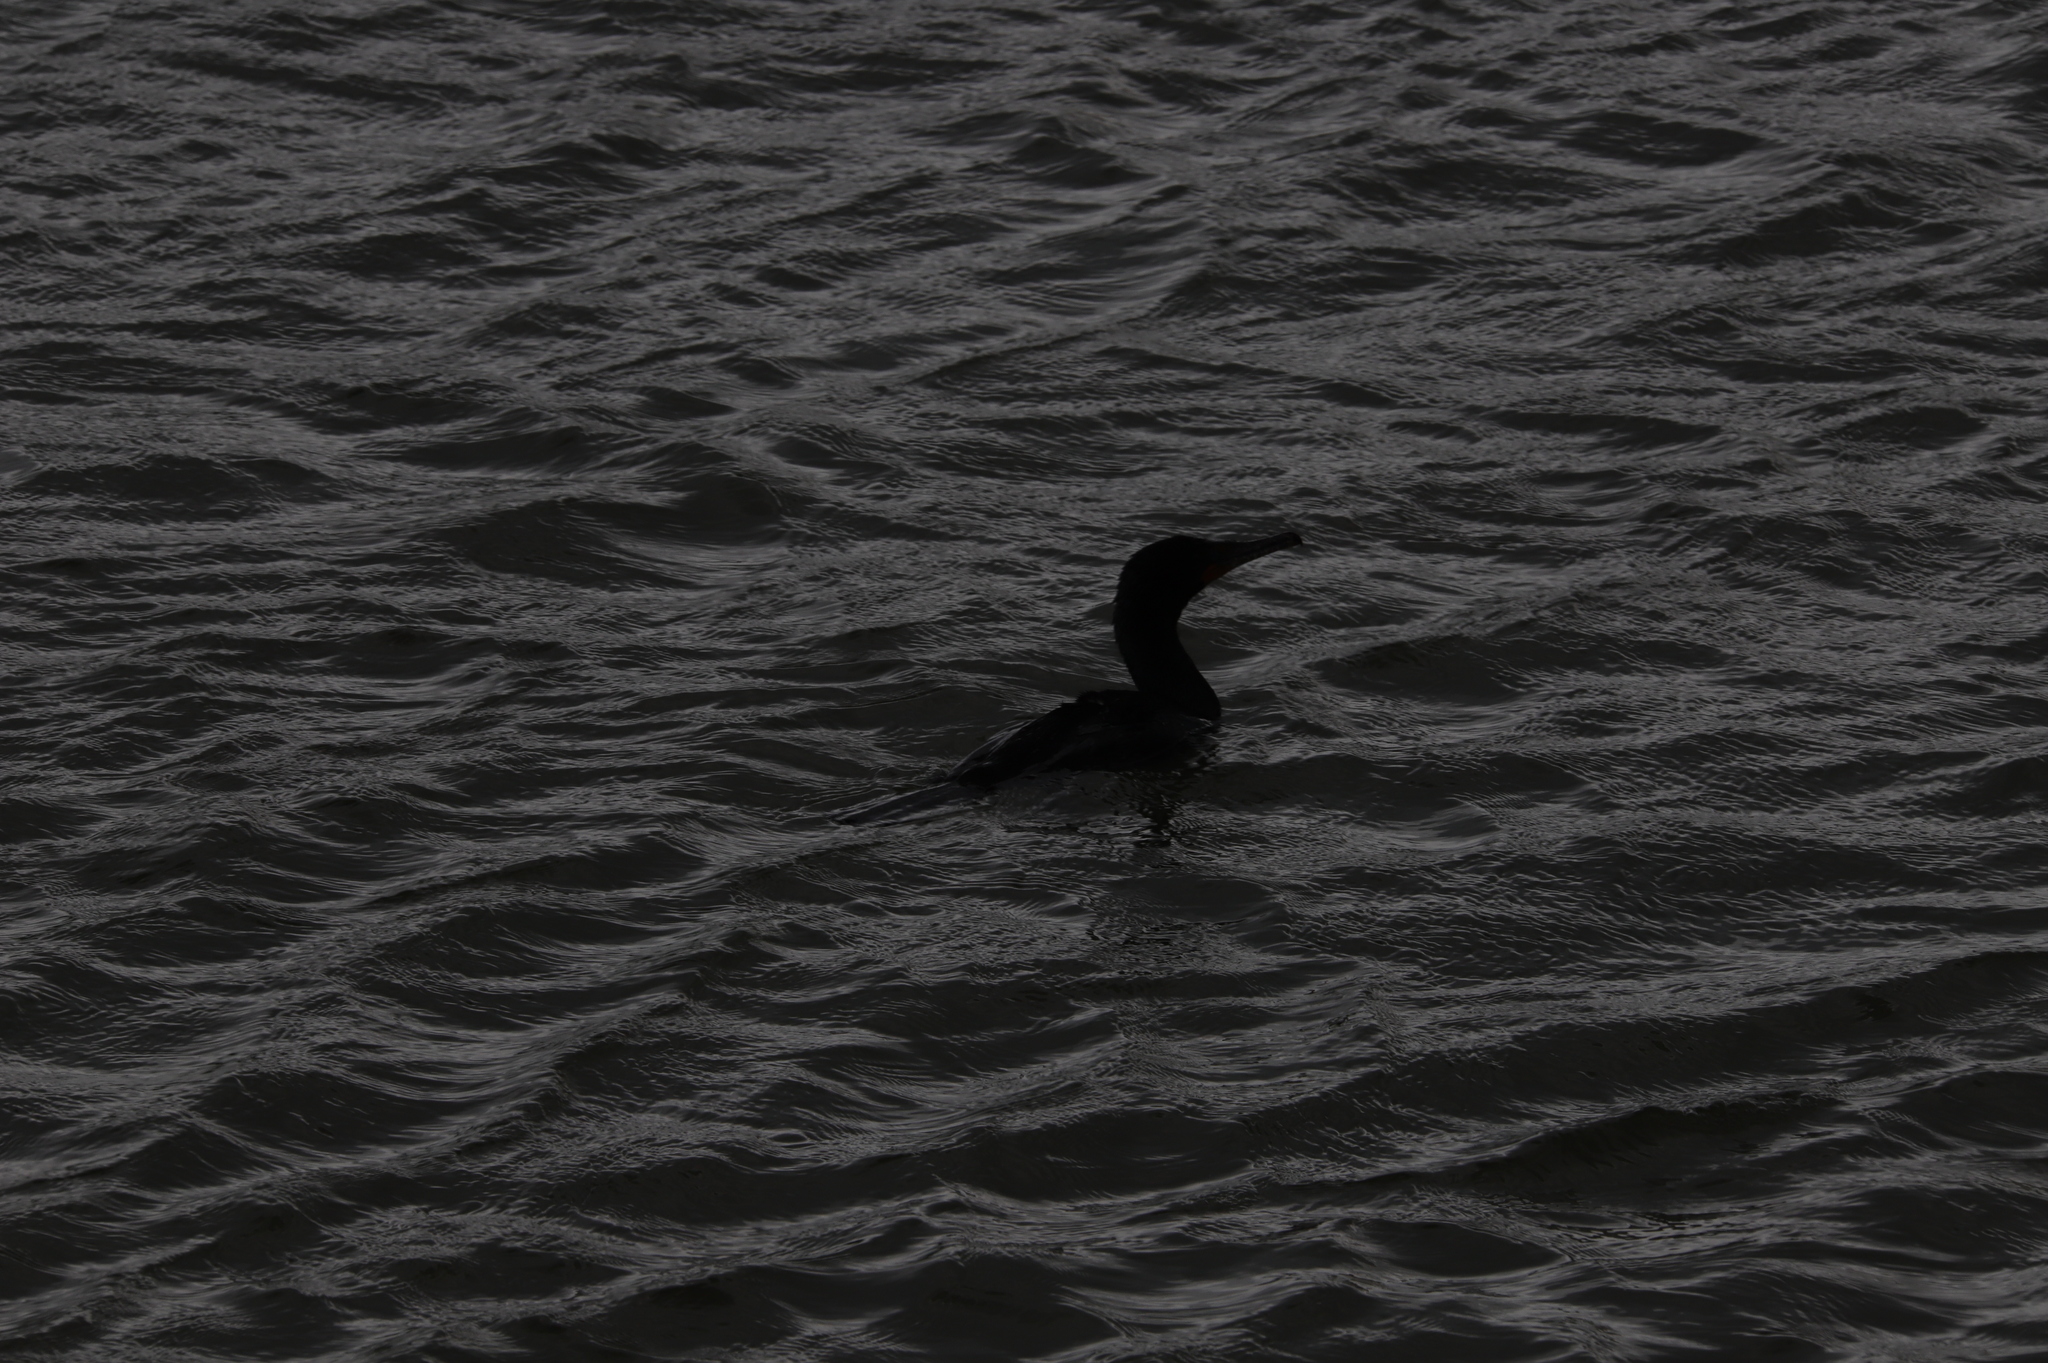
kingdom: Animalia
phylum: Chordata
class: Aves
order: Suliformes
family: Phalacrocoracidae
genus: Phalacrocorax
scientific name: Phalacrocorax auritus
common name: Double-crested cormorant
